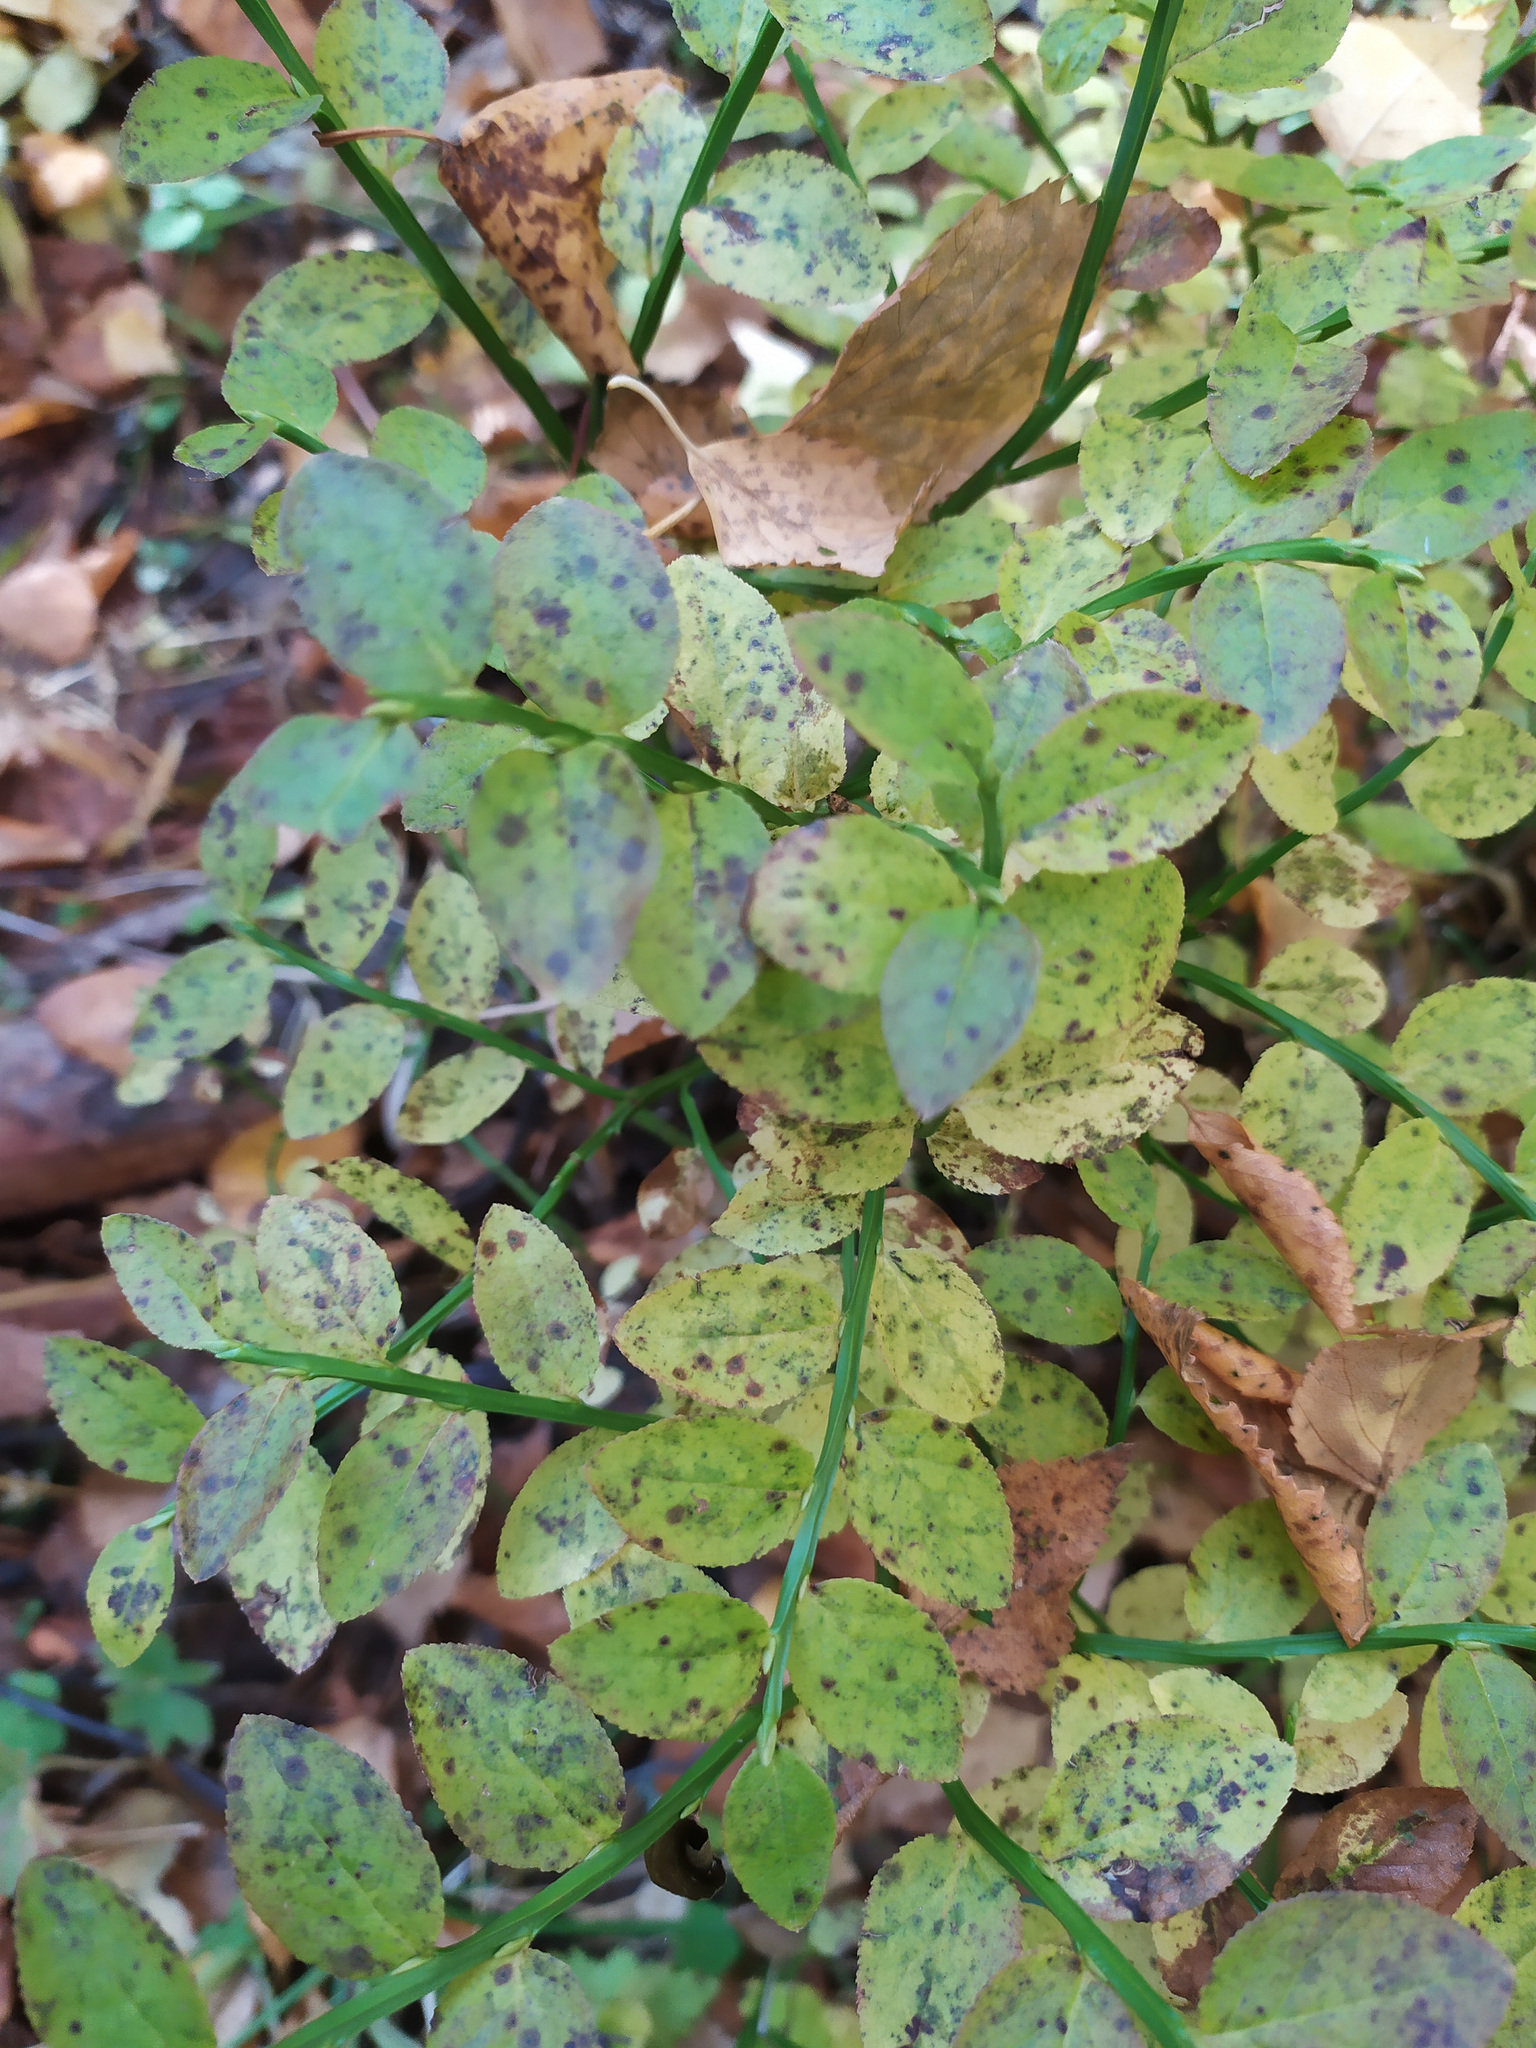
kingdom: Plantae
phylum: Tracheophyta
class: Magnoliopsida
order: Ericales
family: Ericaceae
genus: Vaccinium
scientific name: Vaccinium myrtillus
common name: Bilberry
